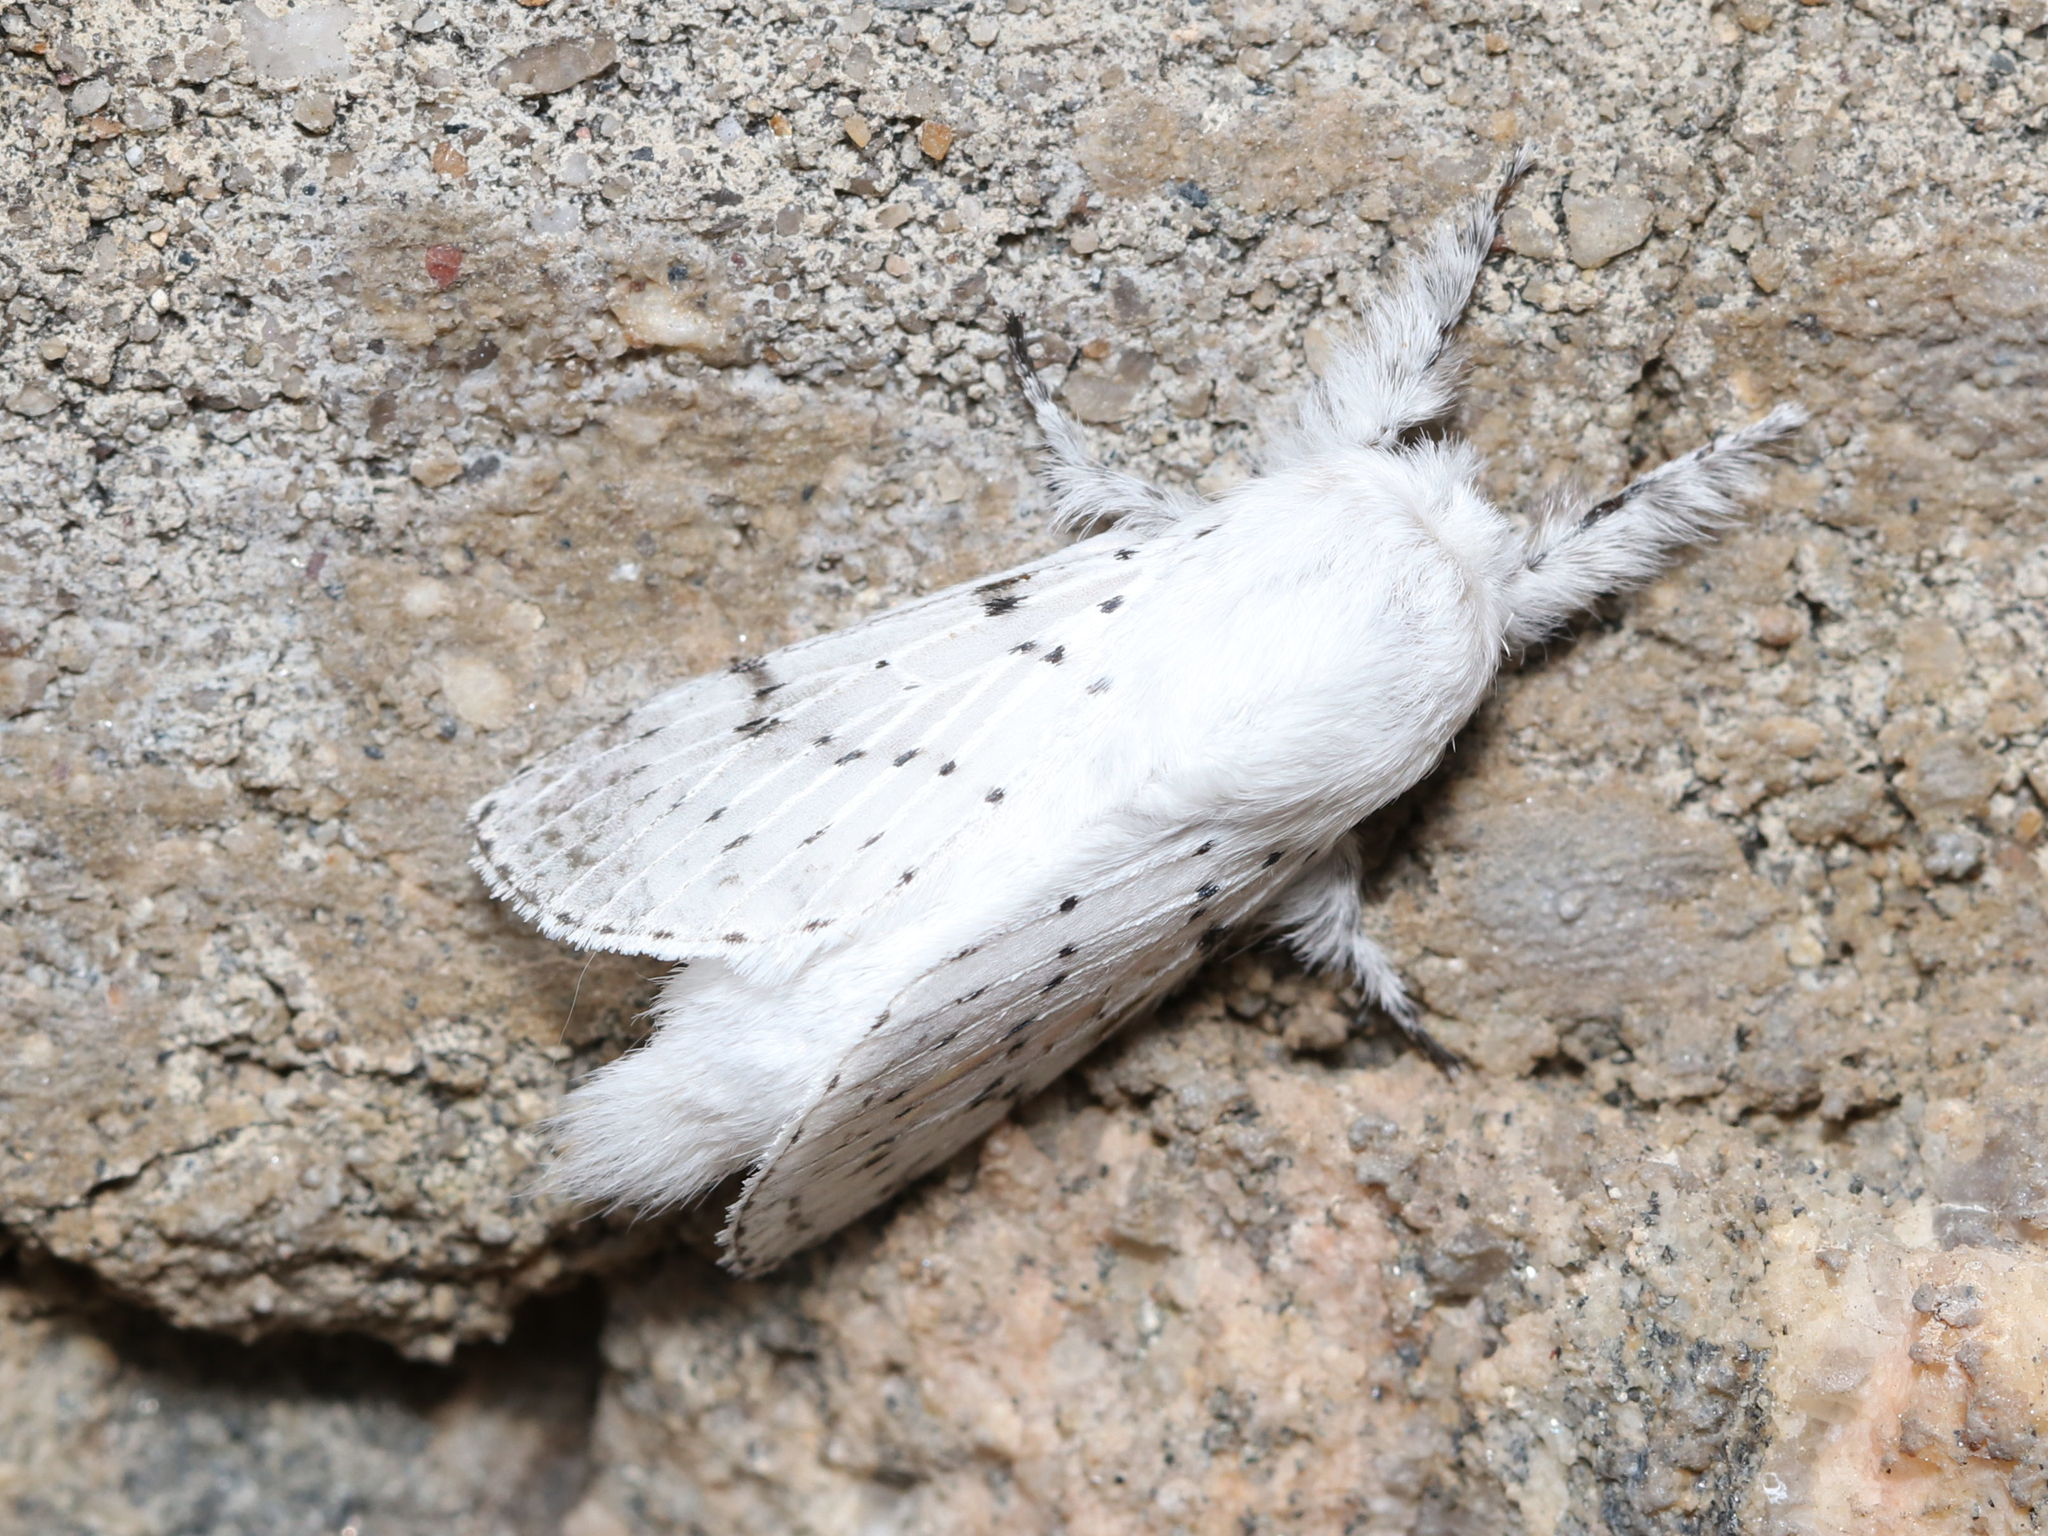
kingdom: Animalia
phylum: Arthropoda
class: Insecta
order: Lepidoptera
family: Lasiocampidae
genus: Artace
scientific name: Artace cribrarius
